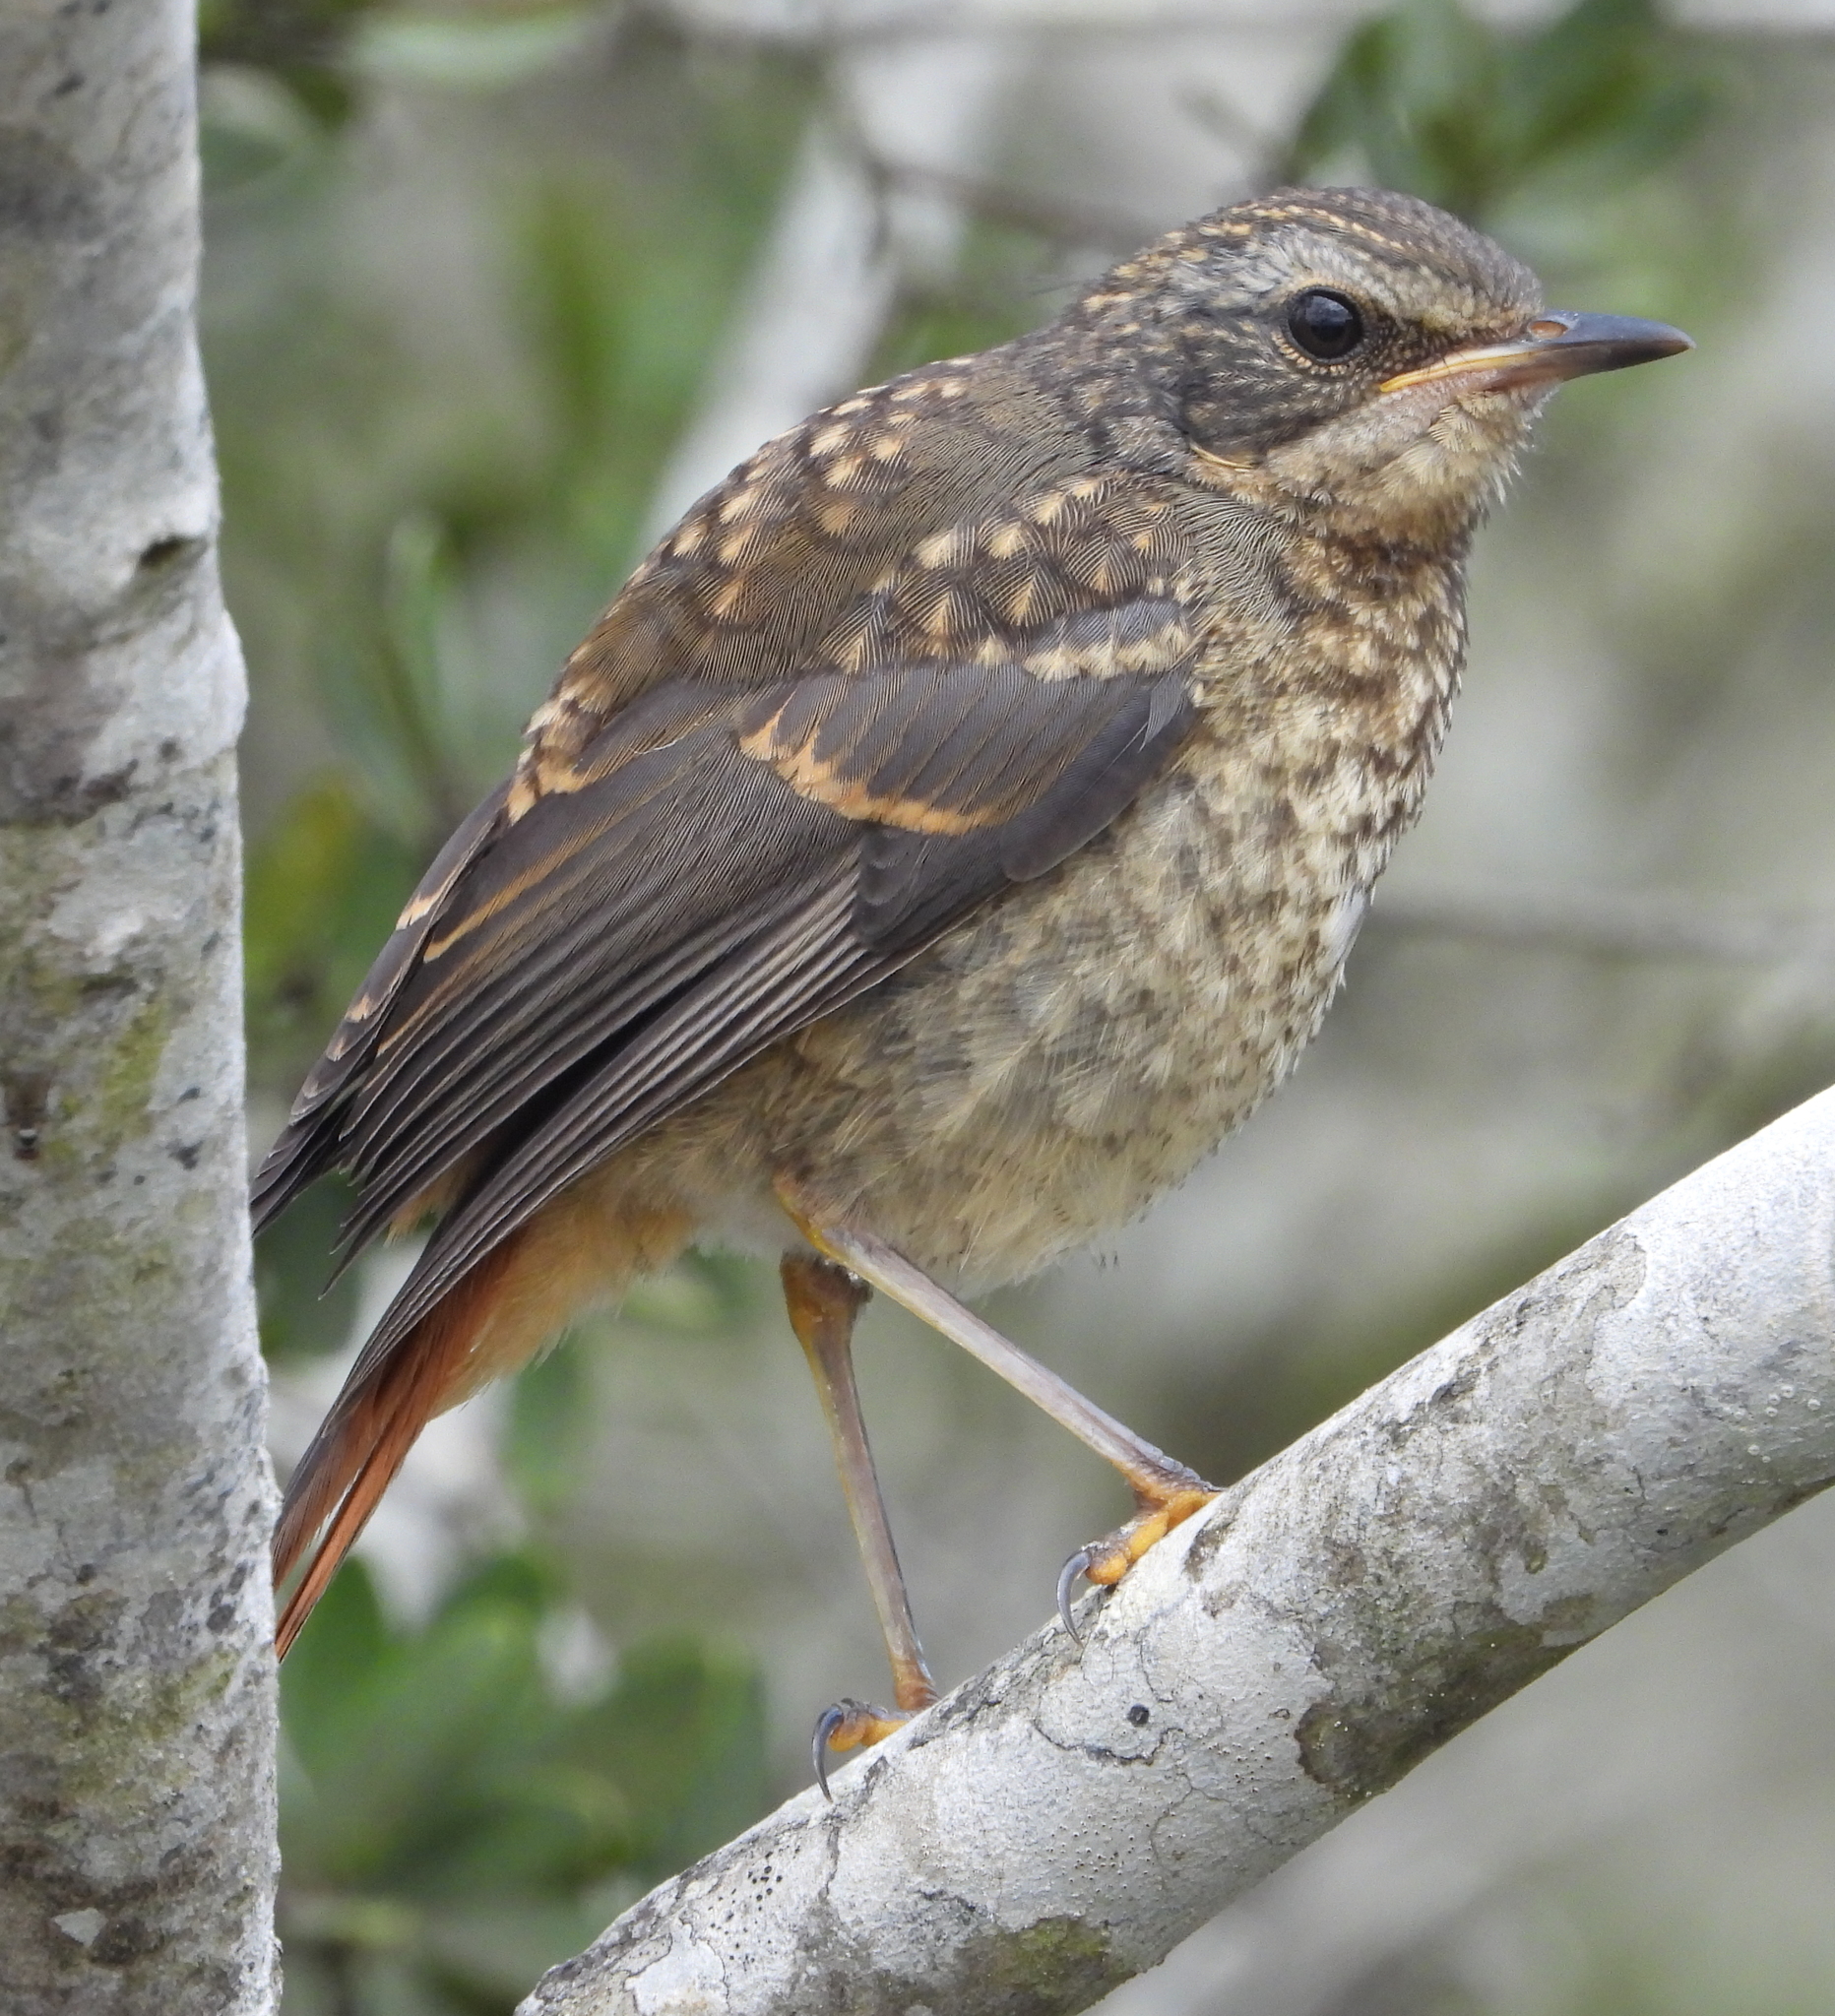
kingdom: Animalia
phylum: Chordata
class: Aves
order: Passeriformes
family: Muscicapidae
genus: Cossypha
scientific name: Cossypha caffra
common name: Cape robin-chat
